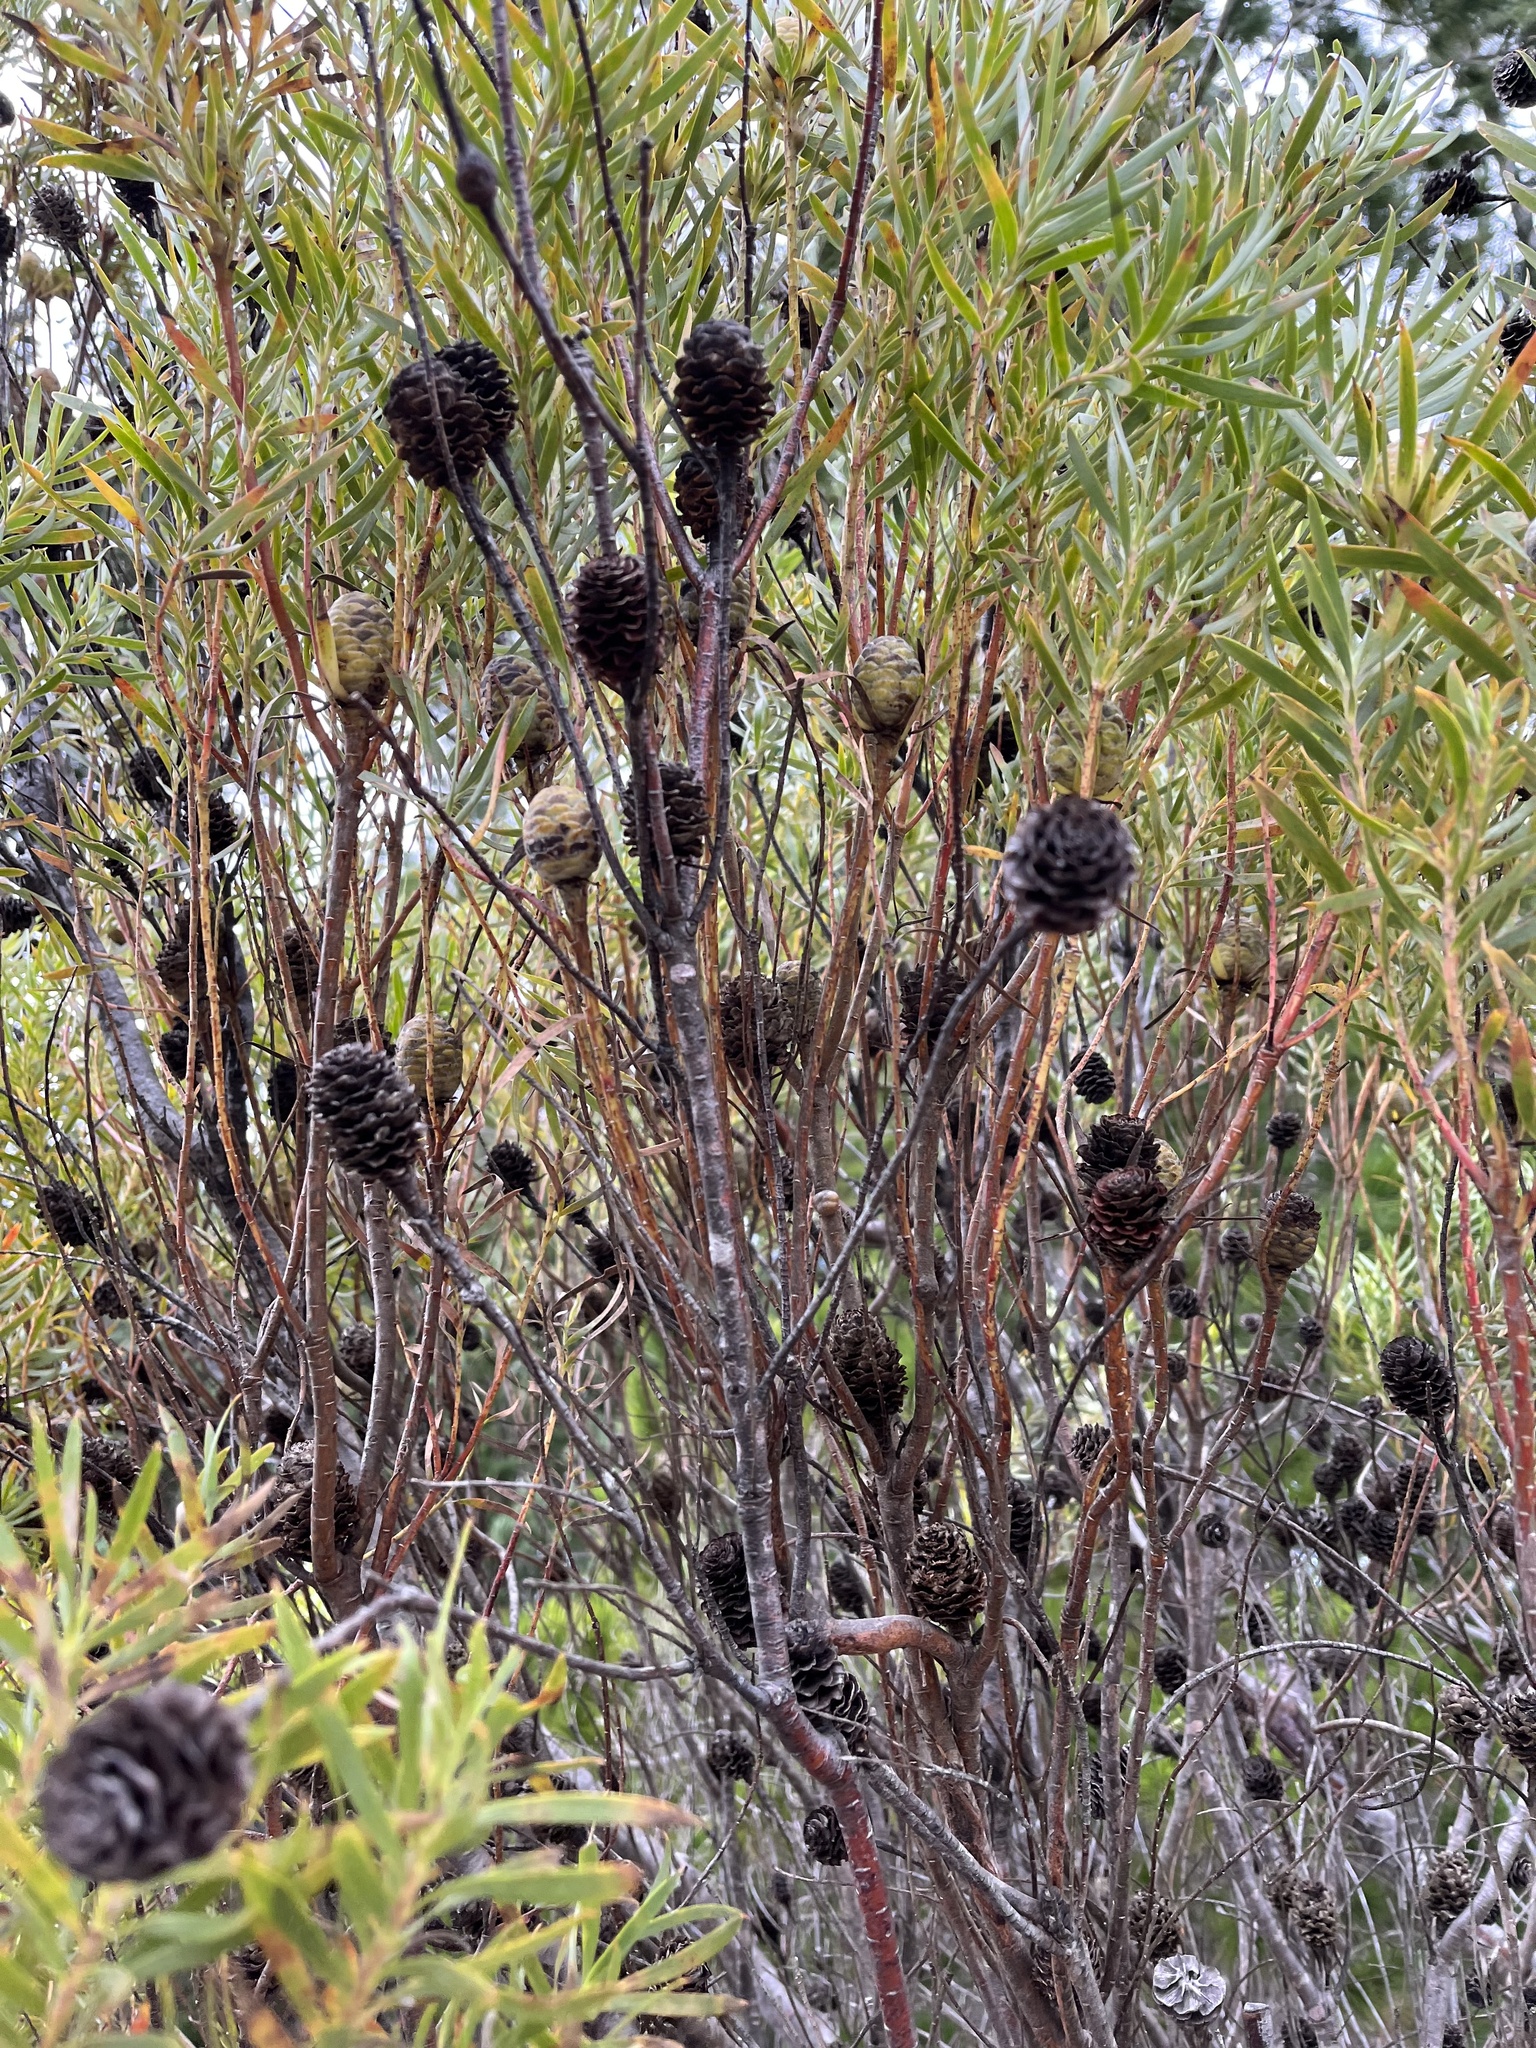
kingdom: Plantae
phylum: Tracheophyta
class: Magnoliopsida
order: Proteales
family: Proteaceae
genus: Leucadendron
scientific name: Leucadendron xanthoconus
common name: Sickle-leaf conebush
